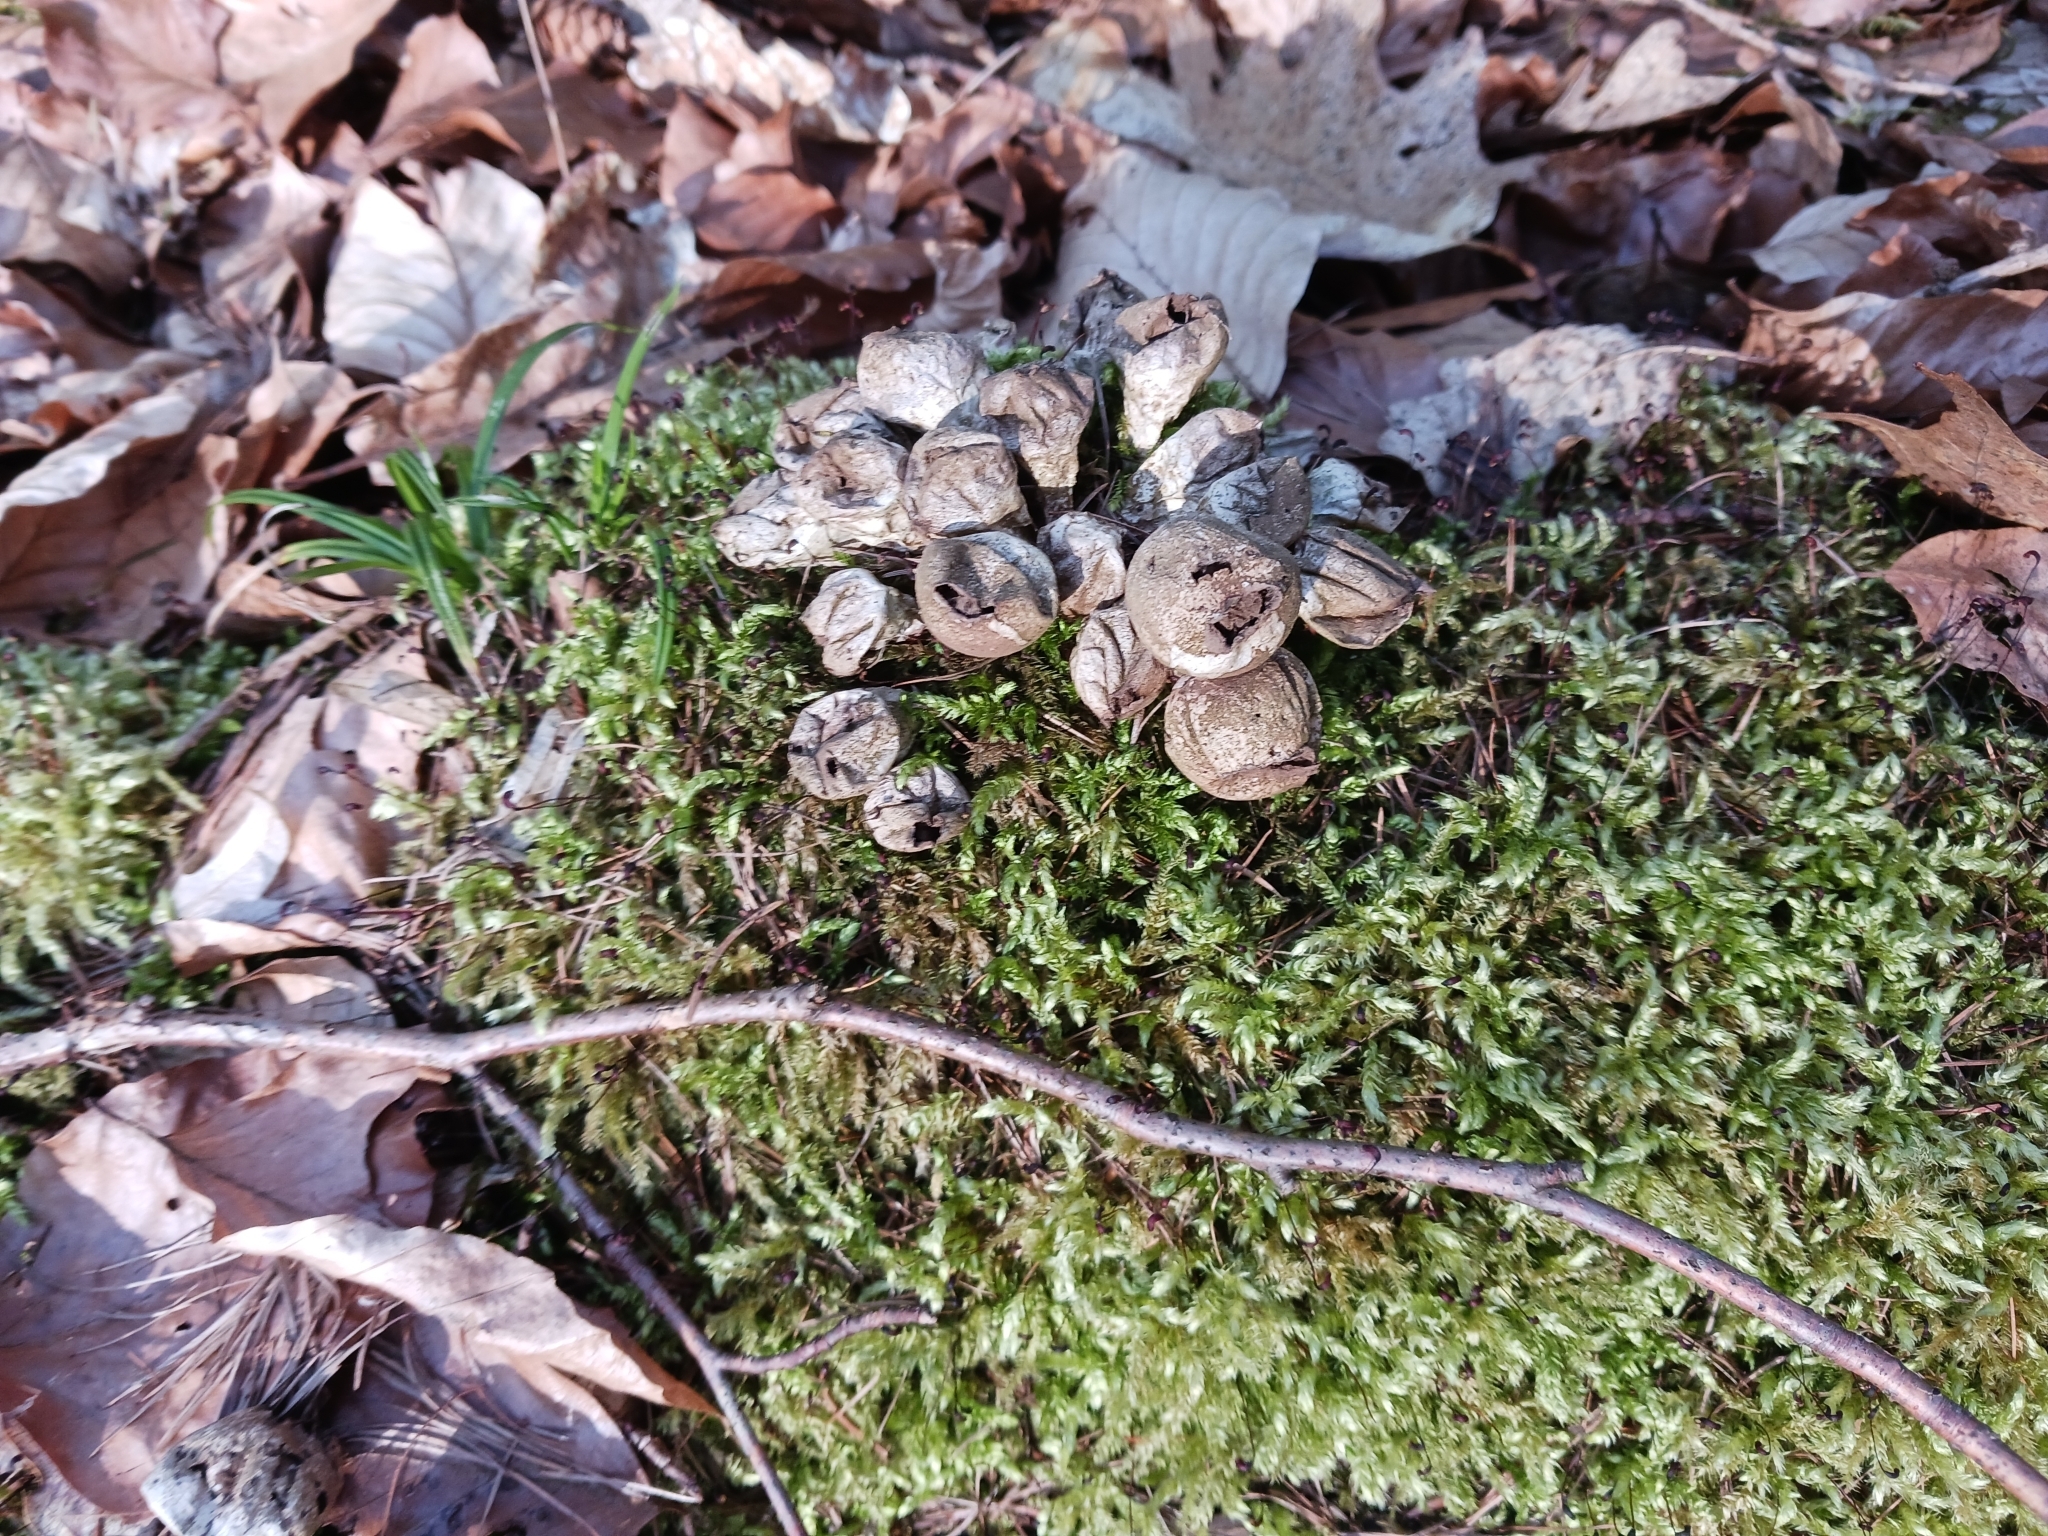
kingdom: Fungi
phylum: Basidiomycota
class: Agaricomycetes
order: Agaricales
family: Lycoperdaceae
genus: Apioperdon
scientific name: Apioperdon pyriforme
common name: Pear-shaped puffball
